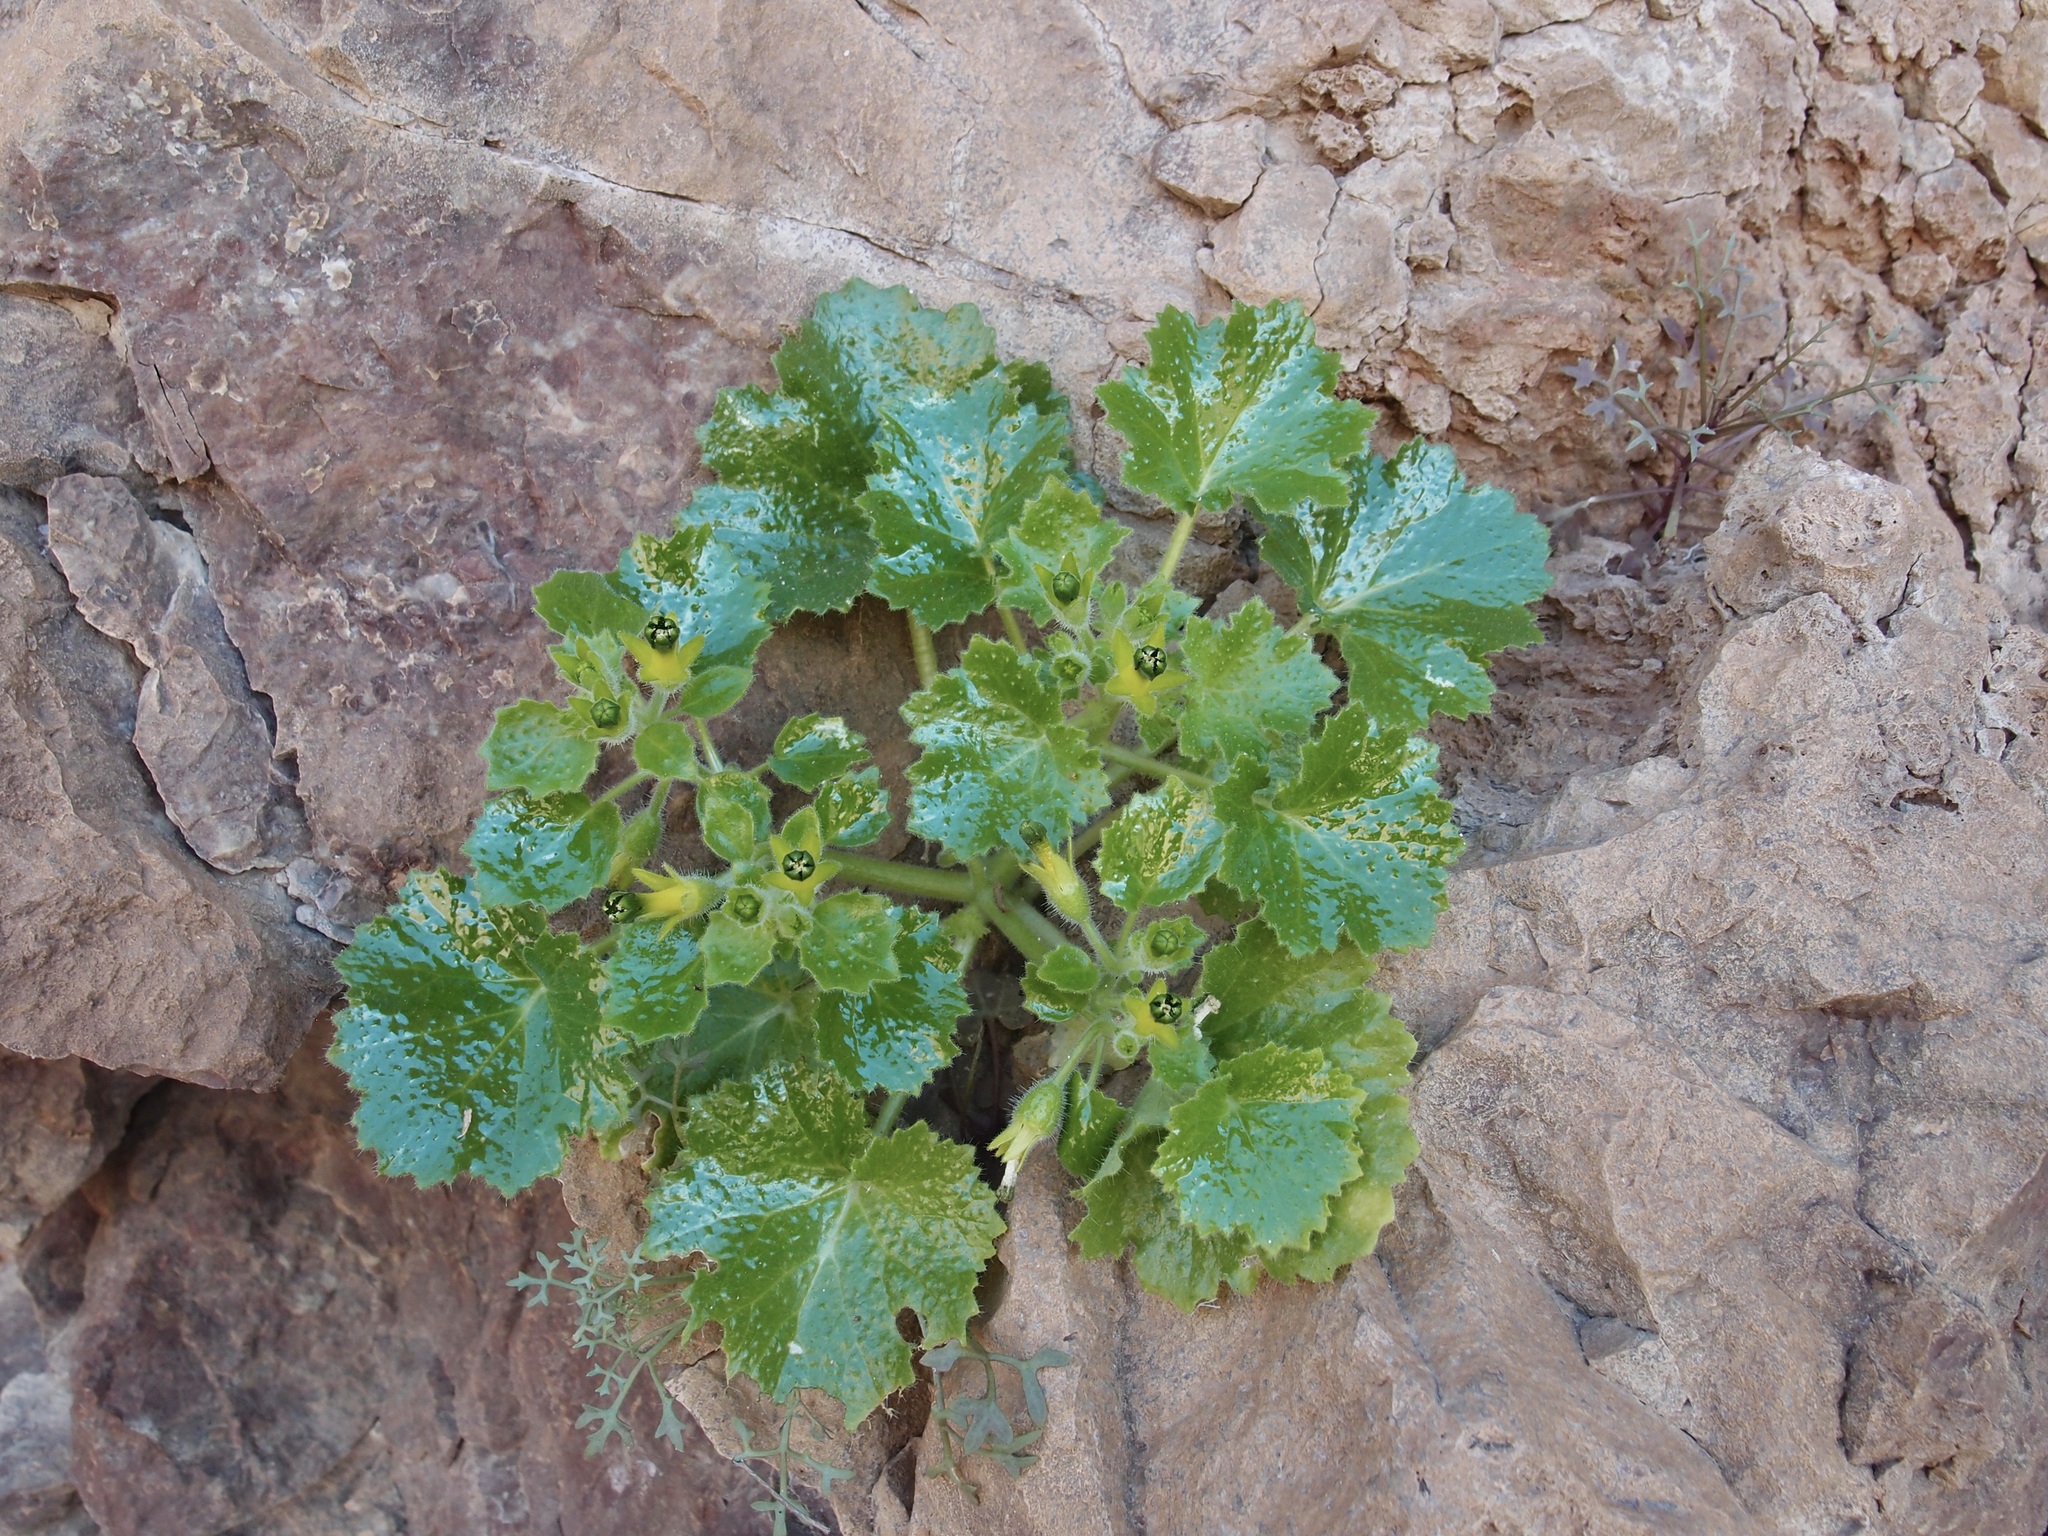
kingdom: Plantae
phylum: Tracheophyta
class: Magnoliopsida
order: Cornales
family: Loasaceae
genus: Eucnide
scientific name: Eucnide rupestris
